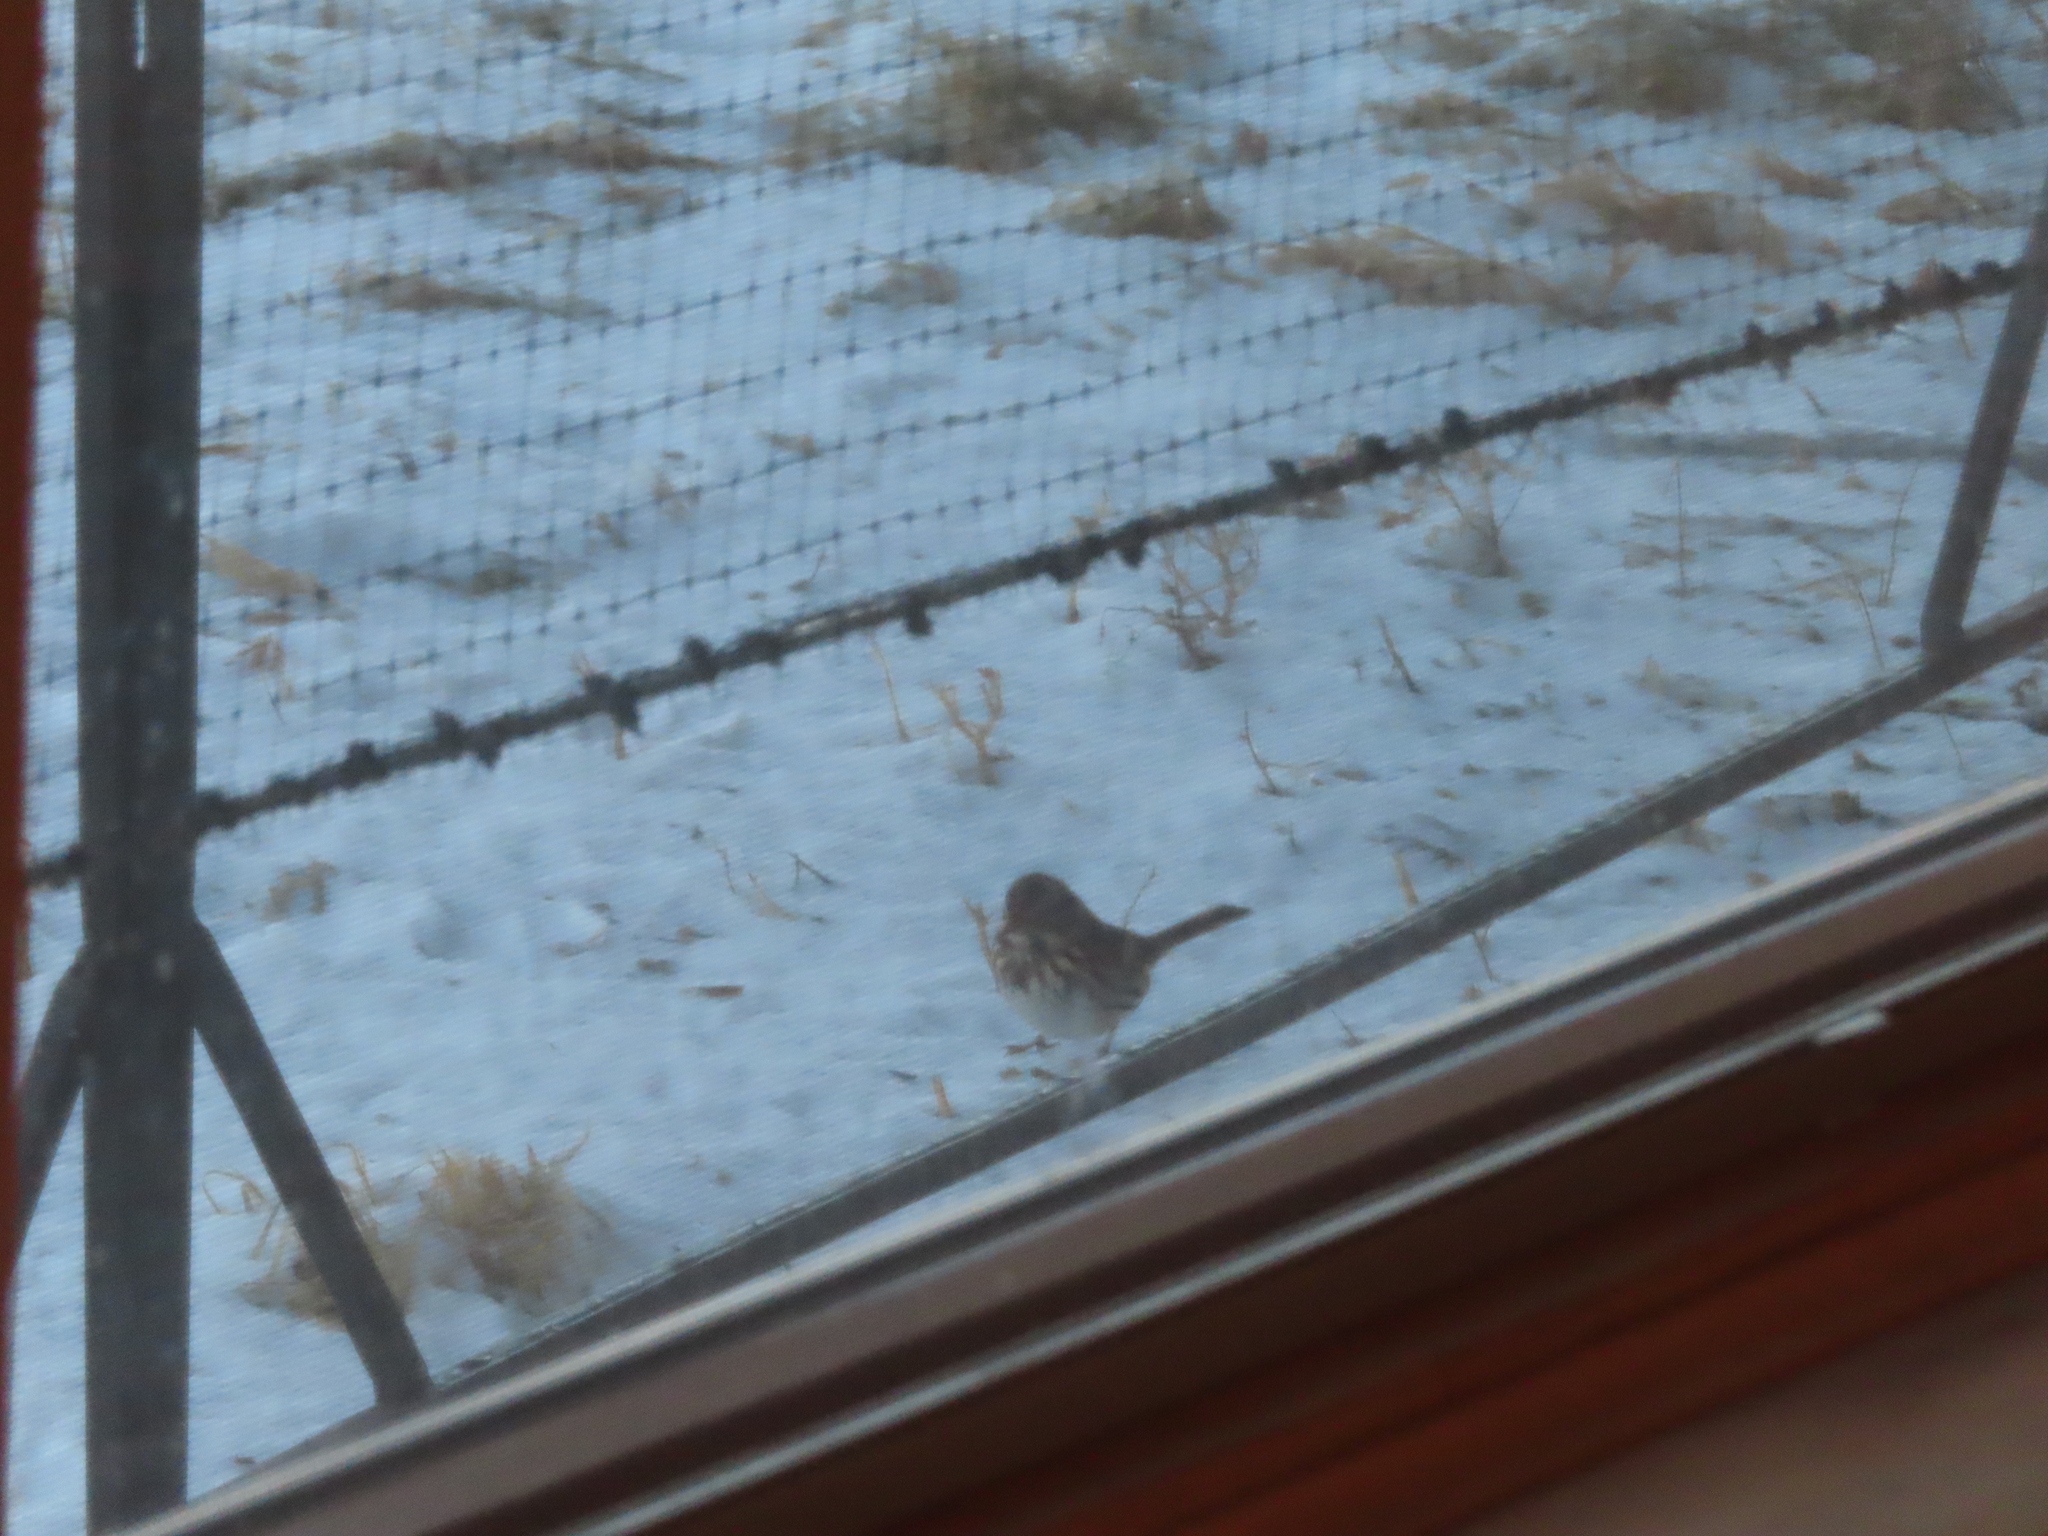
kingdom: Animalia
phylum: Chordata
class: Aves
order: Passeriformes
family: Passerellidae
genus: Melospiza
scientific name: Melospiza melodia
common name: Song sparrow
